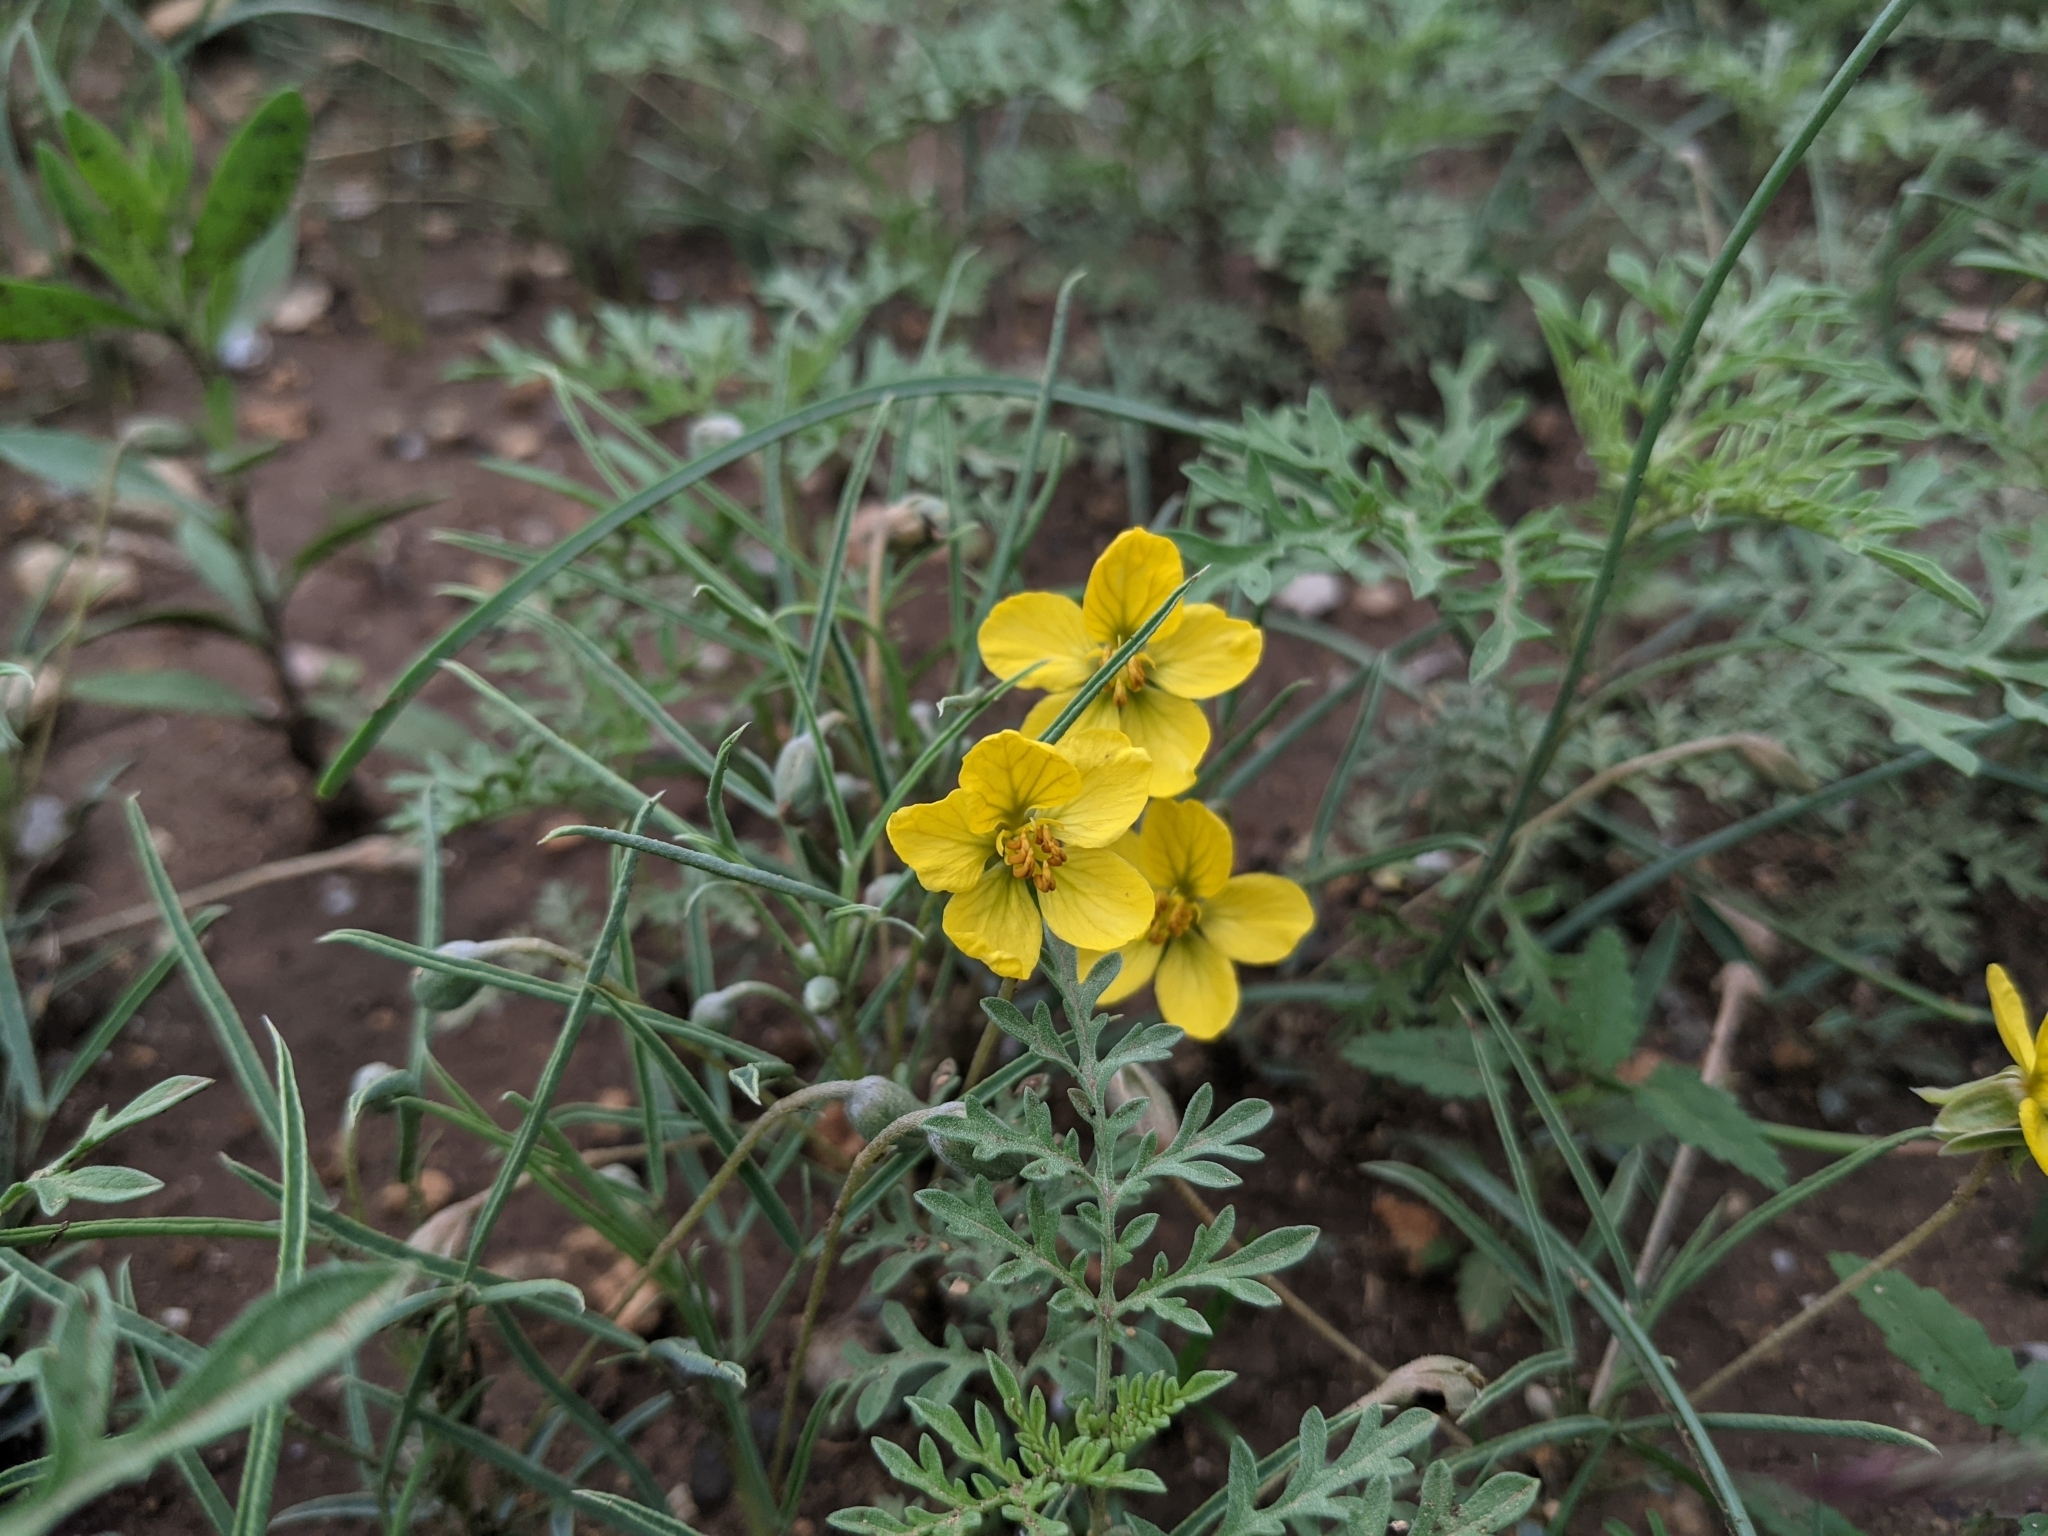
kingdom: Plantae
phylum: Tracheophyta
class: Magnoliopsida
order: Fabales
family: Fabaceae
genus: Senna
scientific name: Senna pumilio
